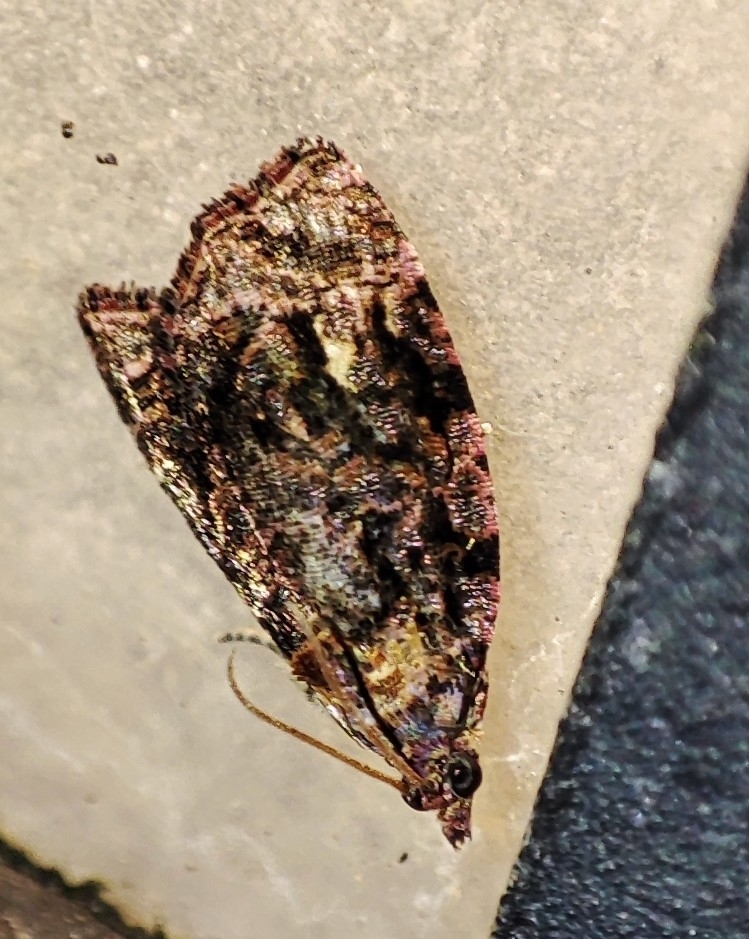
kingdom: Animalia
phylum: Arthropoda
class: Insecta
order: Lepidoptera
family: Tortricidae
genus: Gatesclarkeana
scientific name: Gatesclarkeana idia
